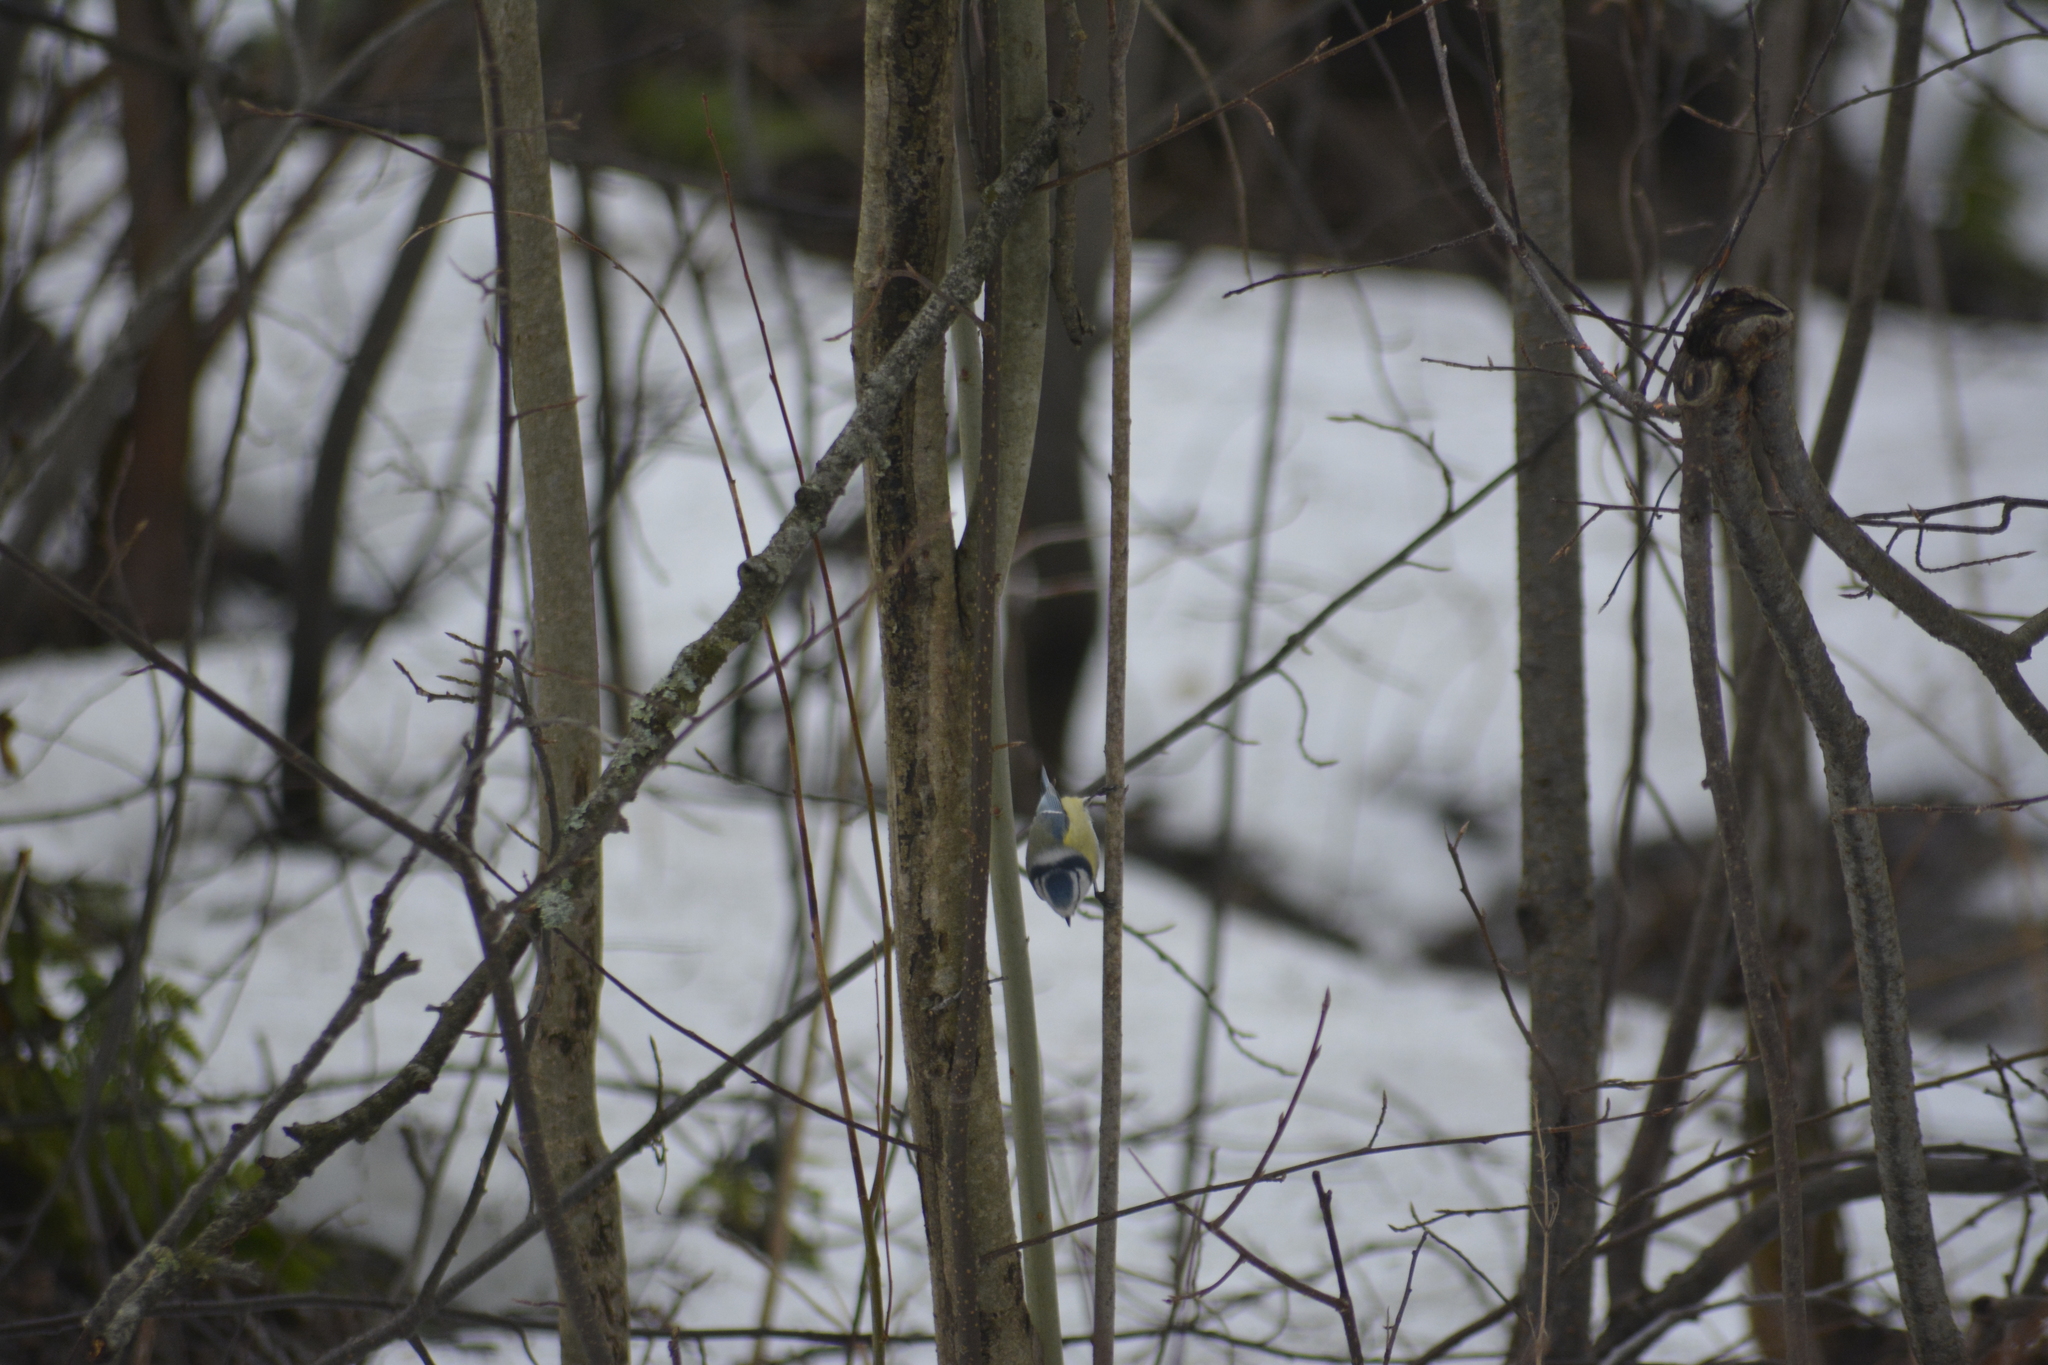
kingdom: Animalia
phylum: Chordata
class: Aves
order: Passeriformes
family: Paridae
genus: Cyanistes
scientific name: Cyanistes caeruleus
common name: Eurasian blue tit
